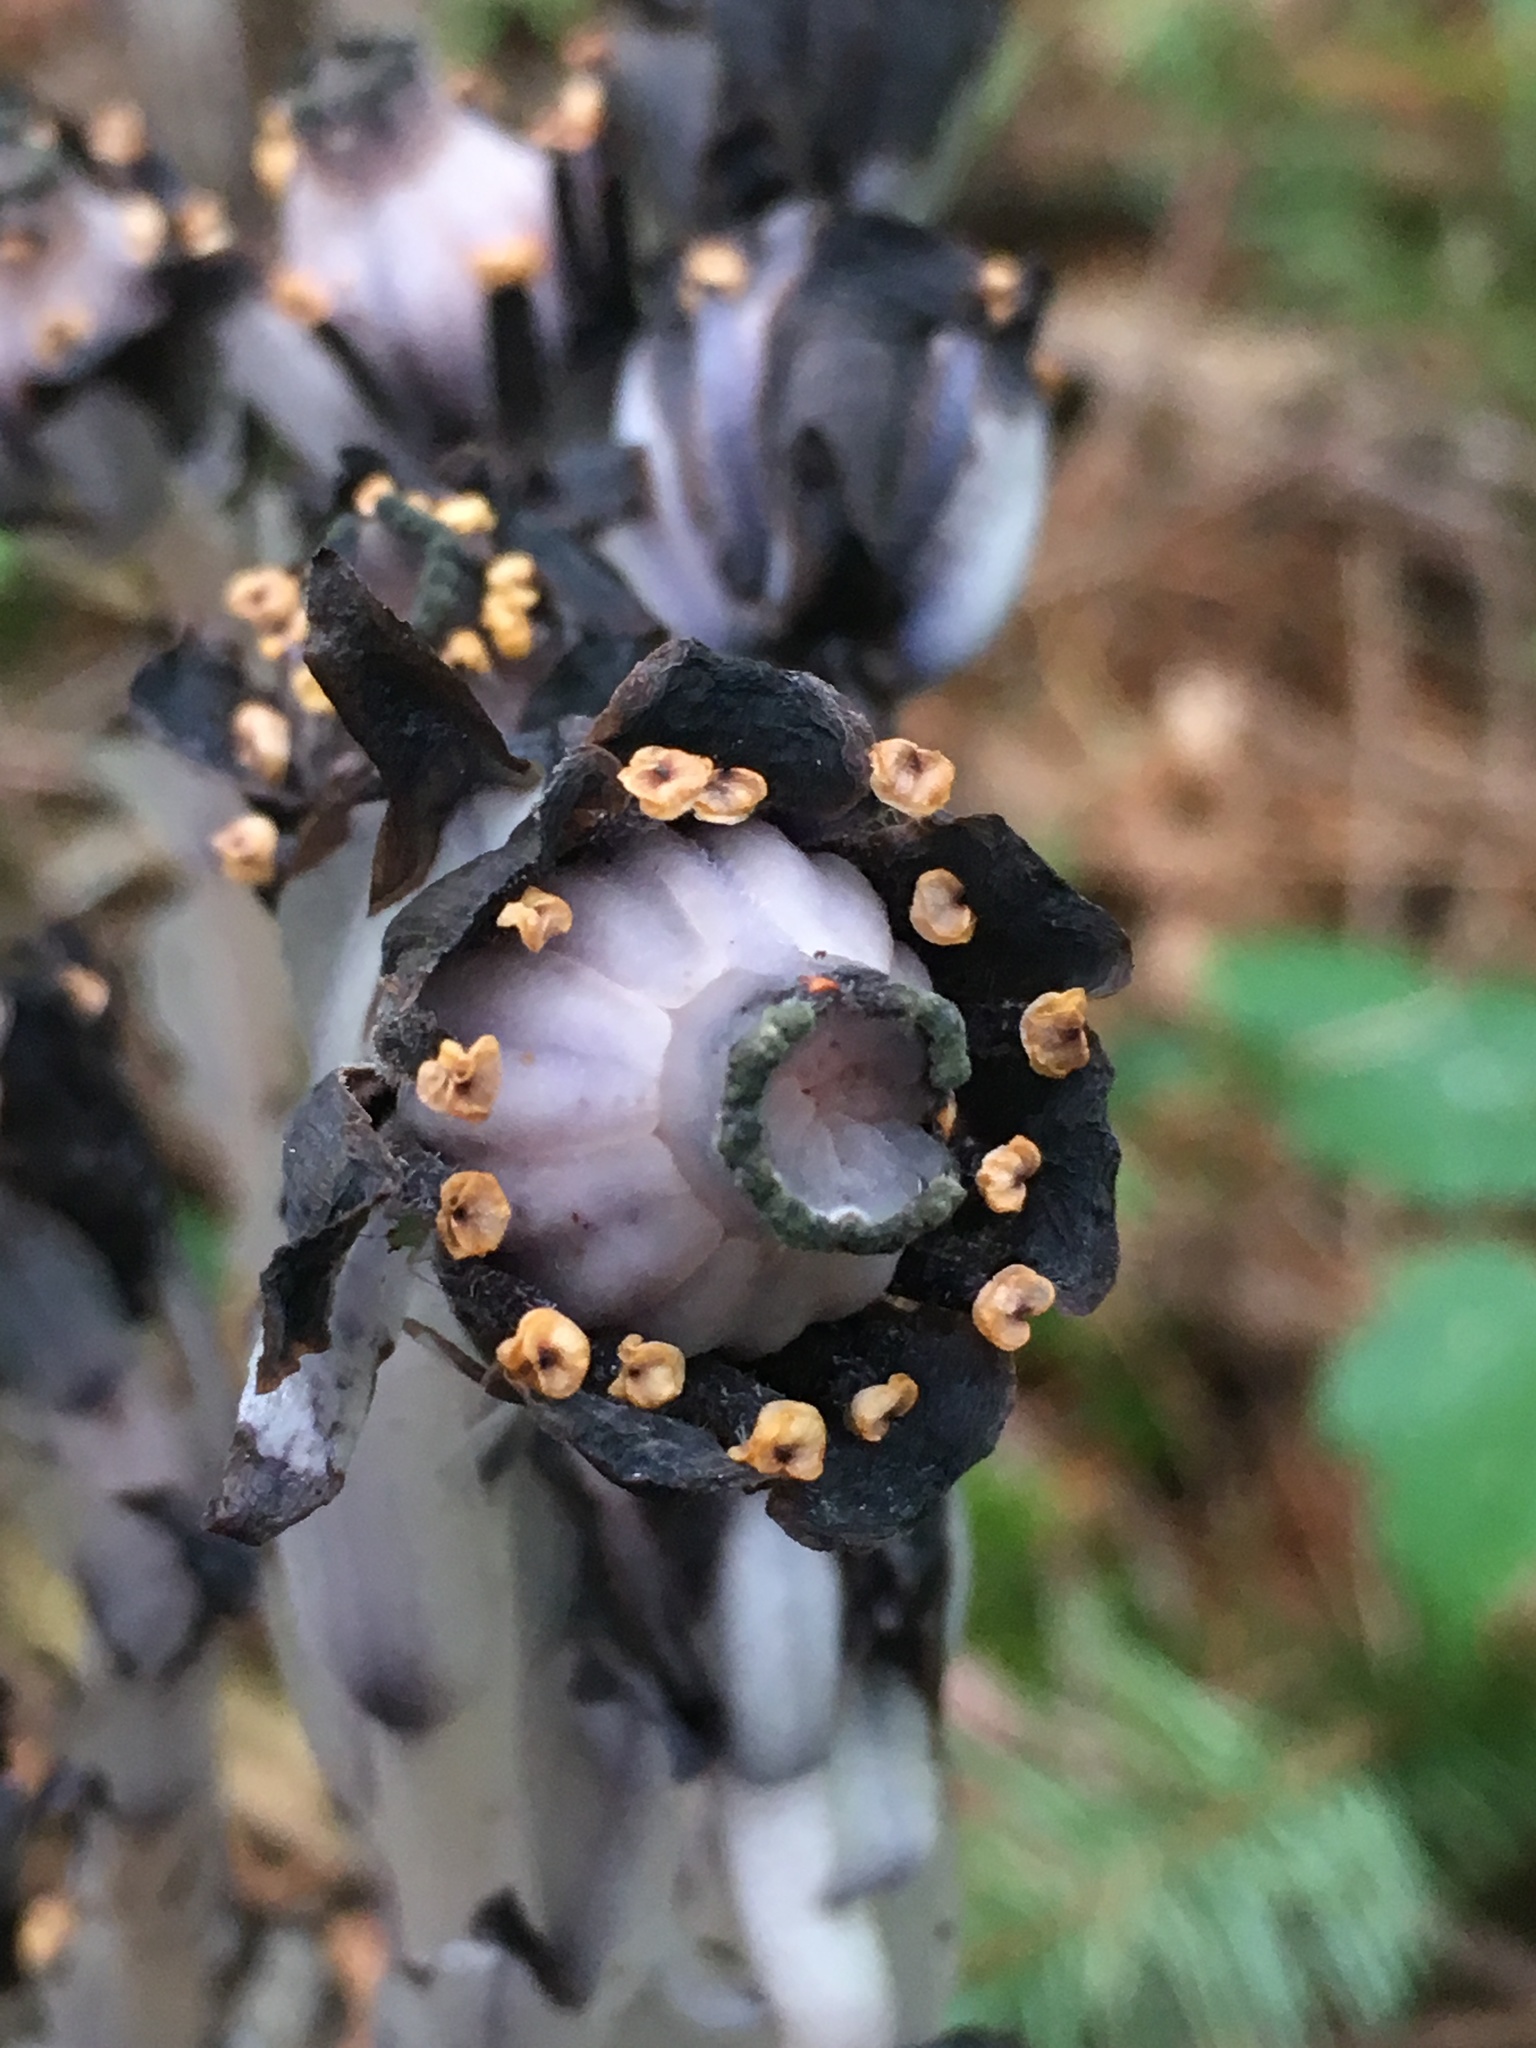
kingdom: Plantae
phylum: Tracheophyta
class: Magnoliopsida
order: Ericales
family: Ericaceae
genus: Monotropa
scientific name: Monotropa uniflora
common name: Convulsion root
